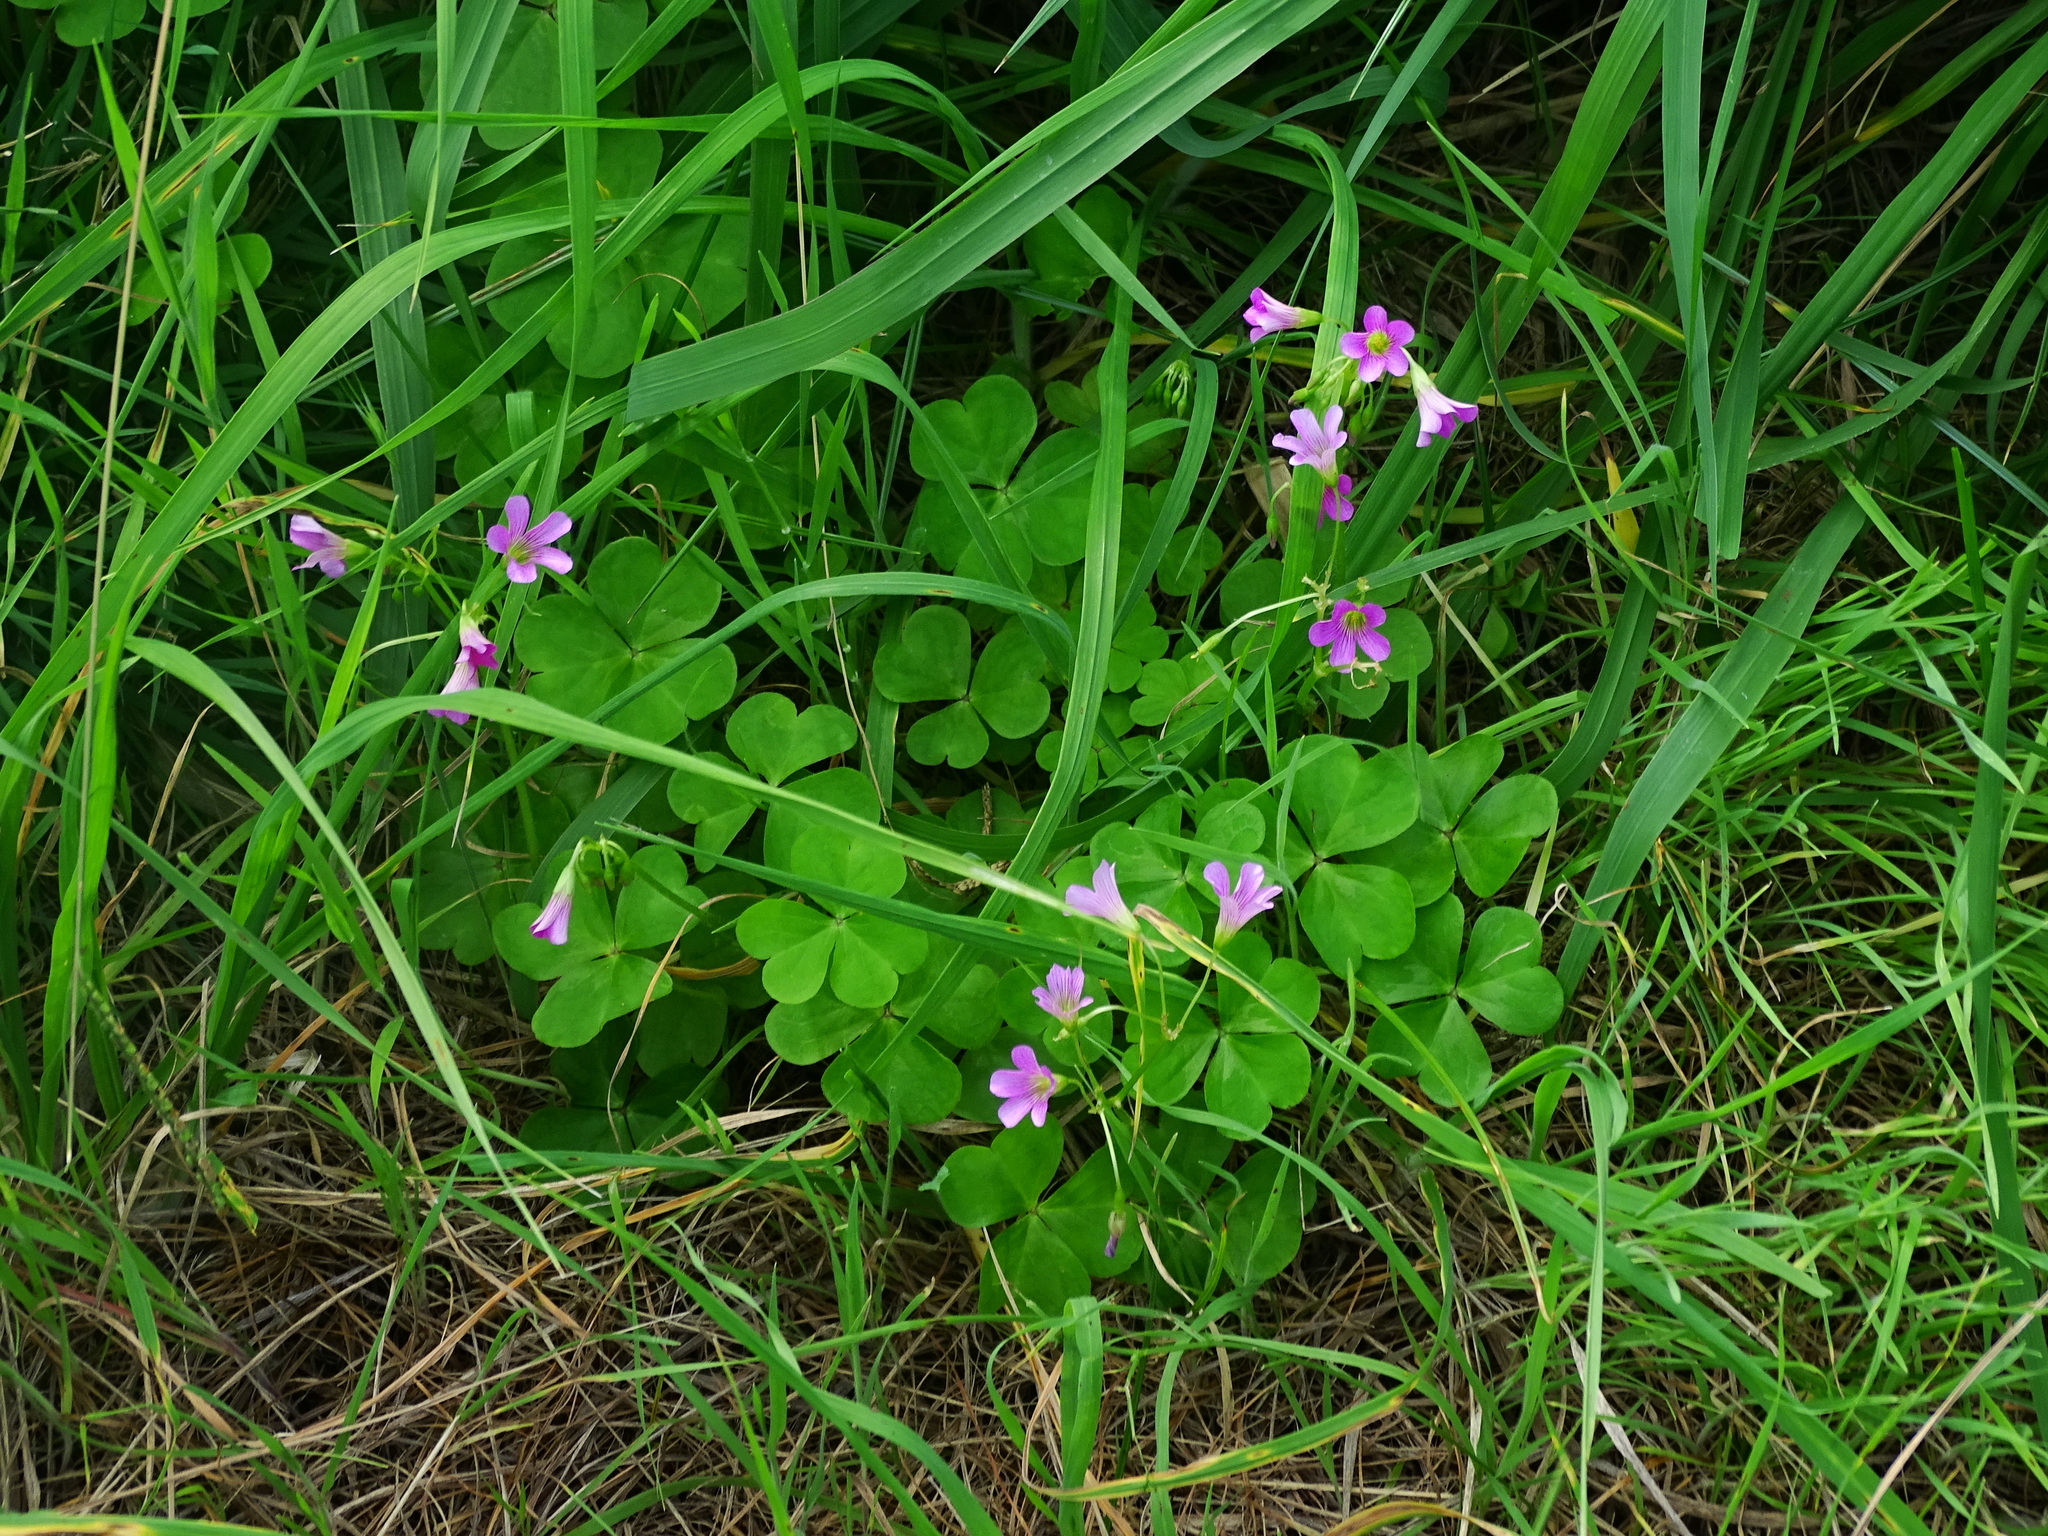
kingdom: Plantae
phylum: Tracheophyta
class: Magnoliopsida
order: Oxalidales
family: Oxalidaceae
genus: Oxalis
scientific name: Oxalis debilis
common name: Large-flowered pink-sorrel
